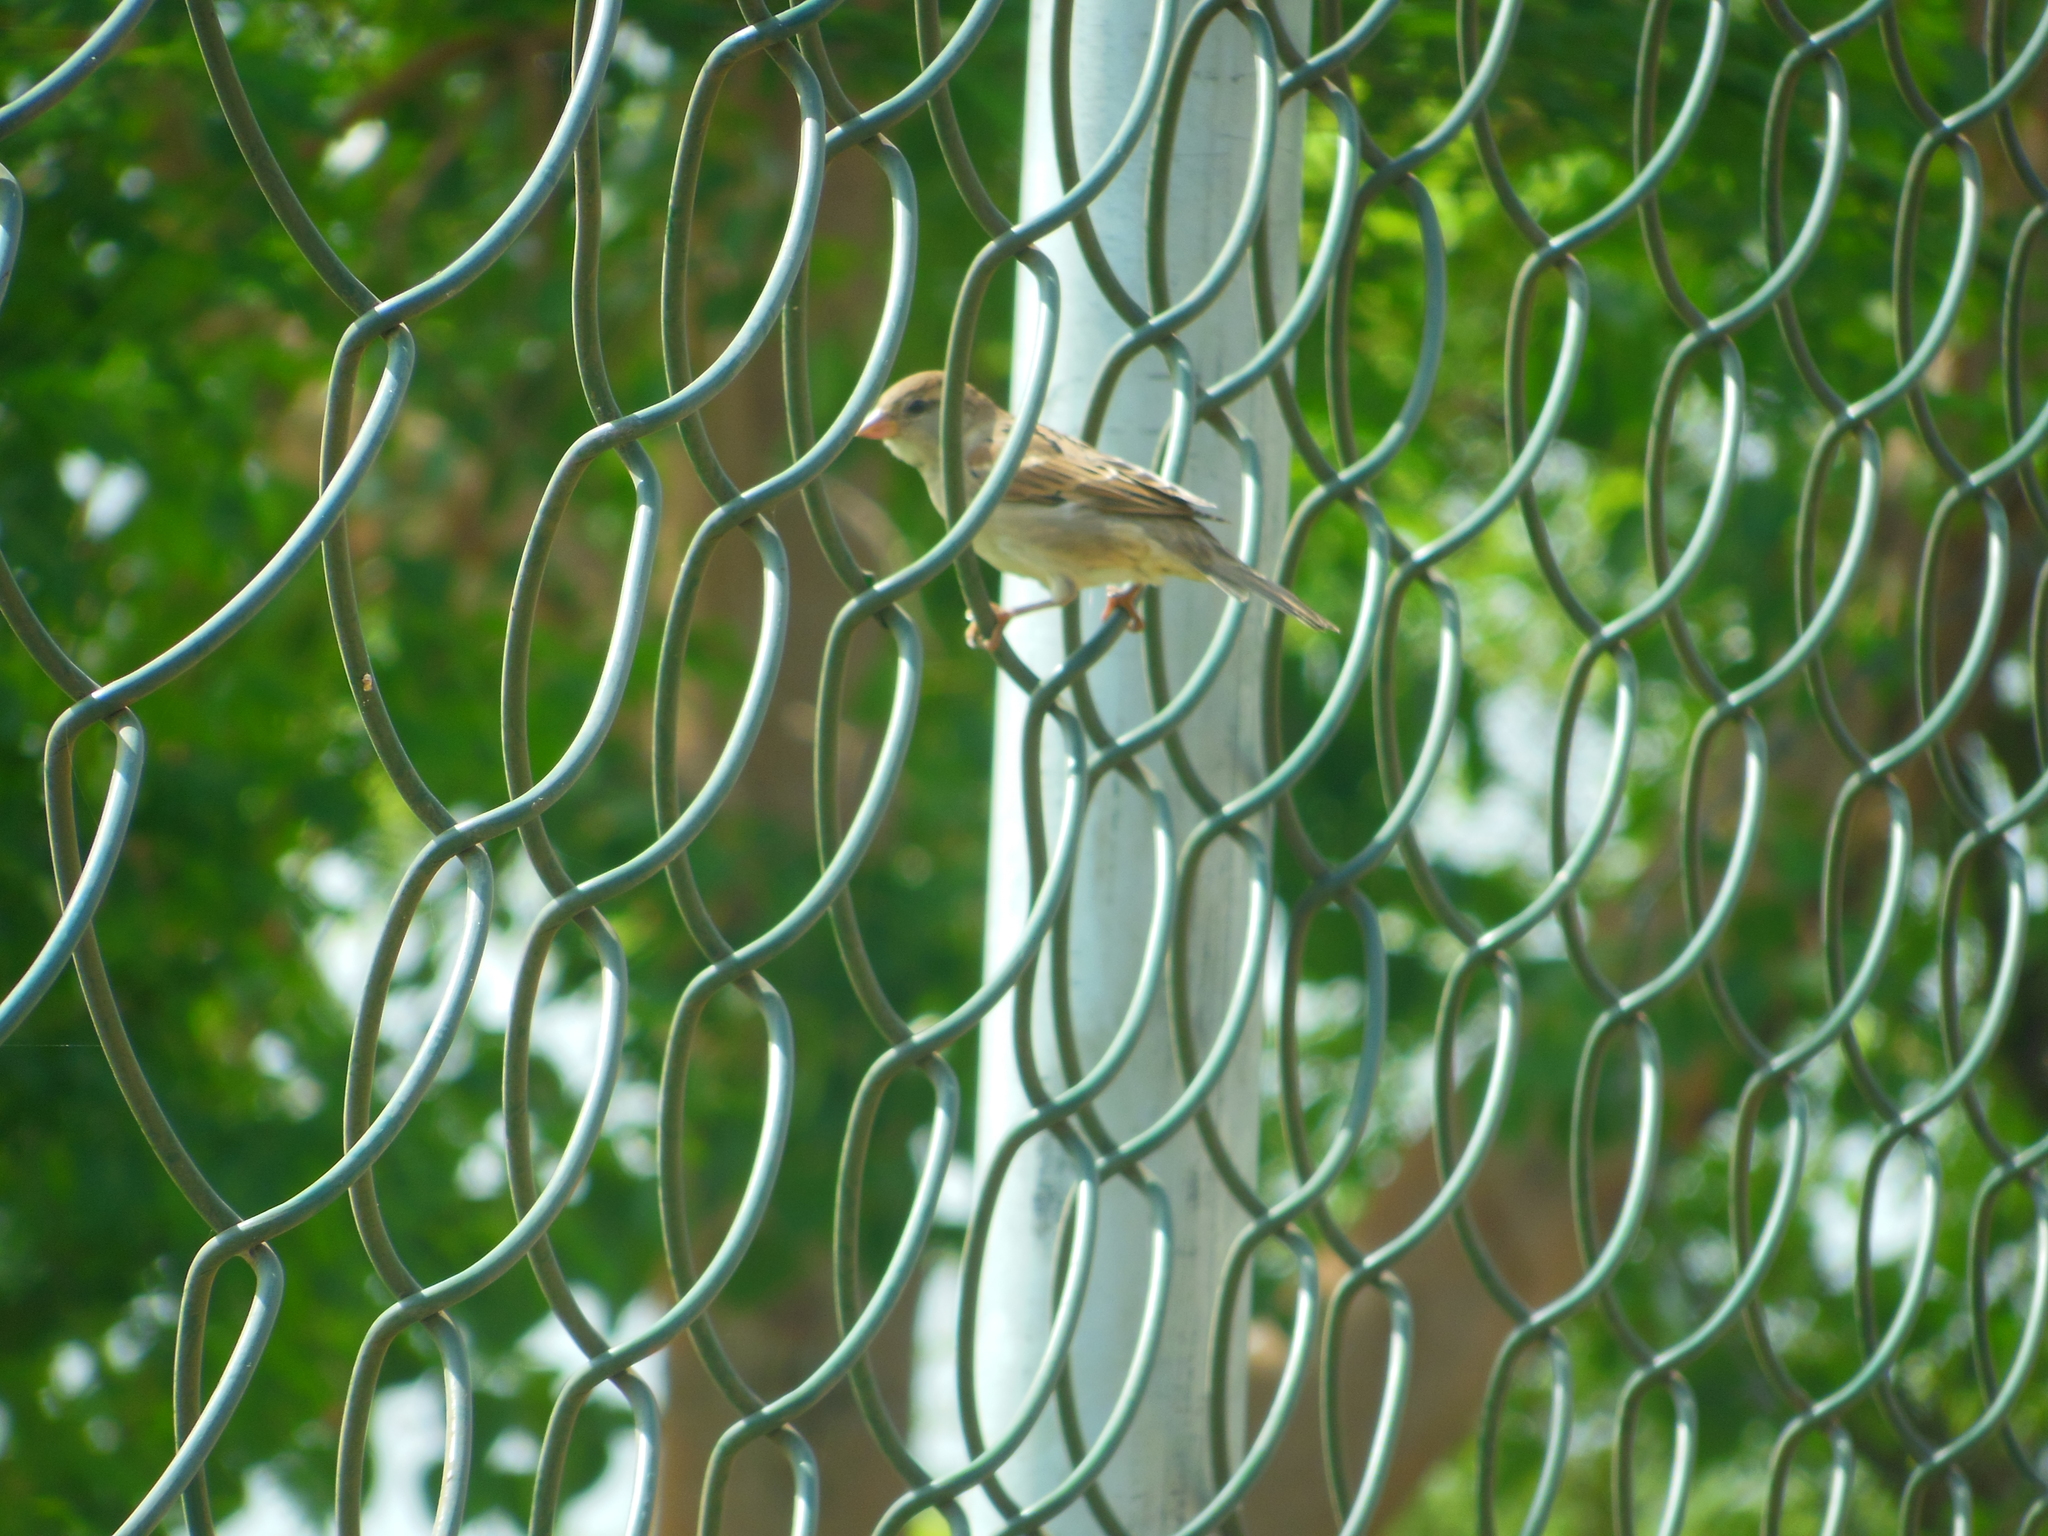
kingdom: Animalia
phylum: Chordata
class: Aves
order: Passeriformes
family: Passeridae
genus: Passer
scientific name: Passer domesticus
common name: House sparrow
